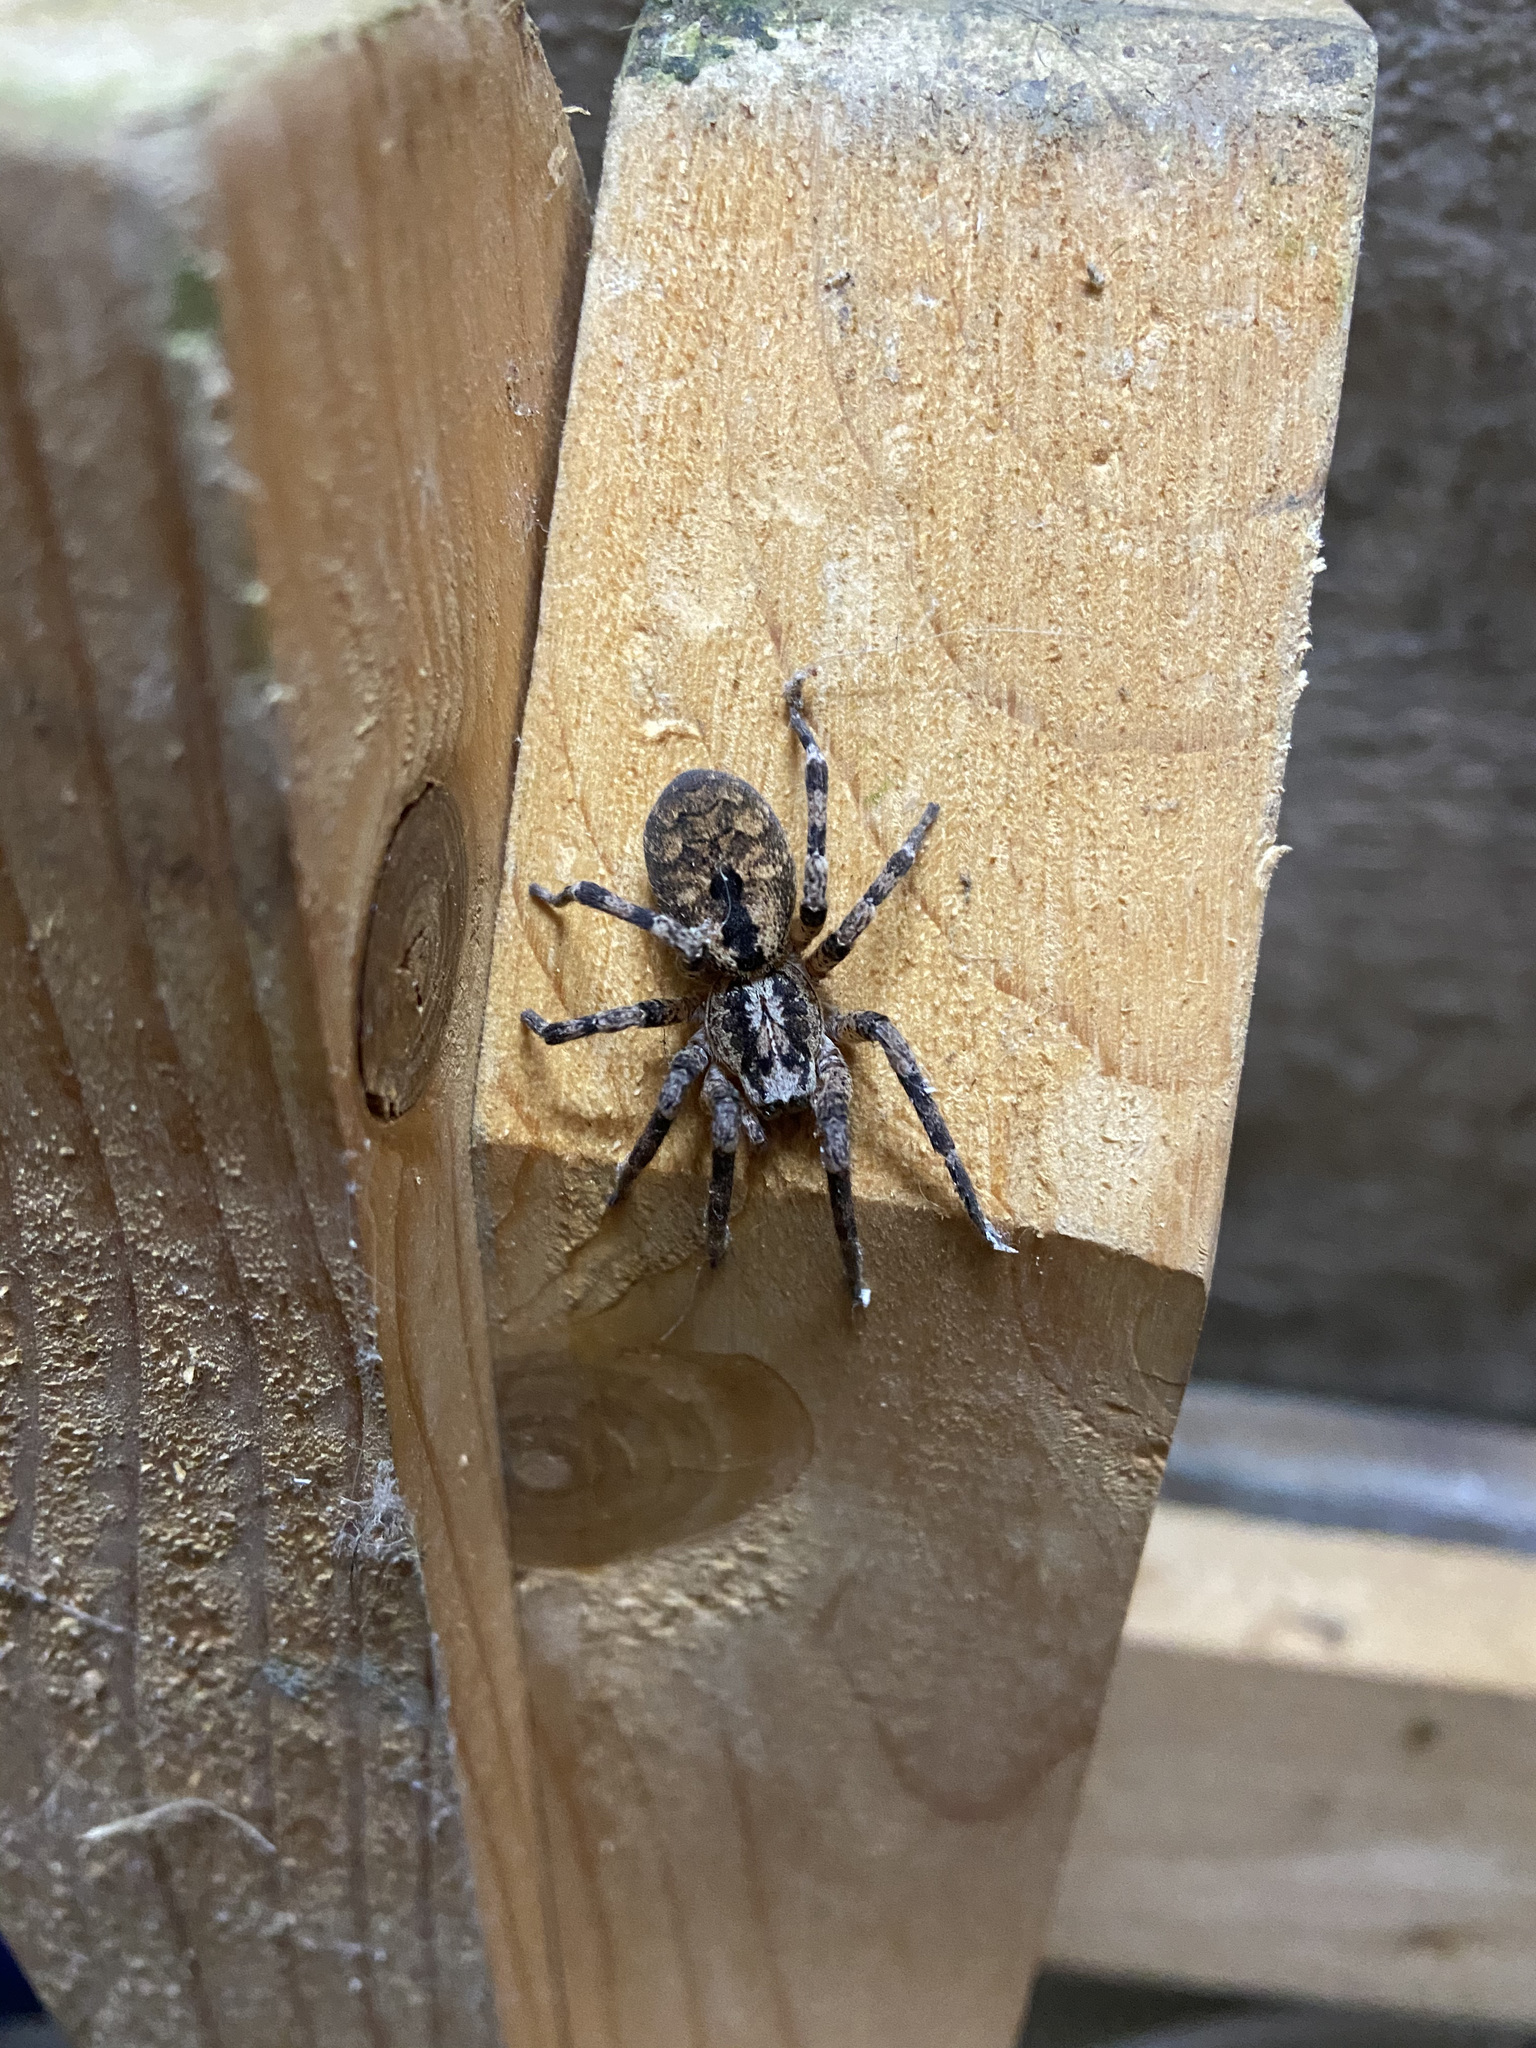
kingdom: Animalia
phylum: Arthropoda
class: Arachnida
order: Araneae
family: Zoropsidae
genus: Zoropsis
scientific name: Zoropsis spinimana
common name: Zoropsid spider
